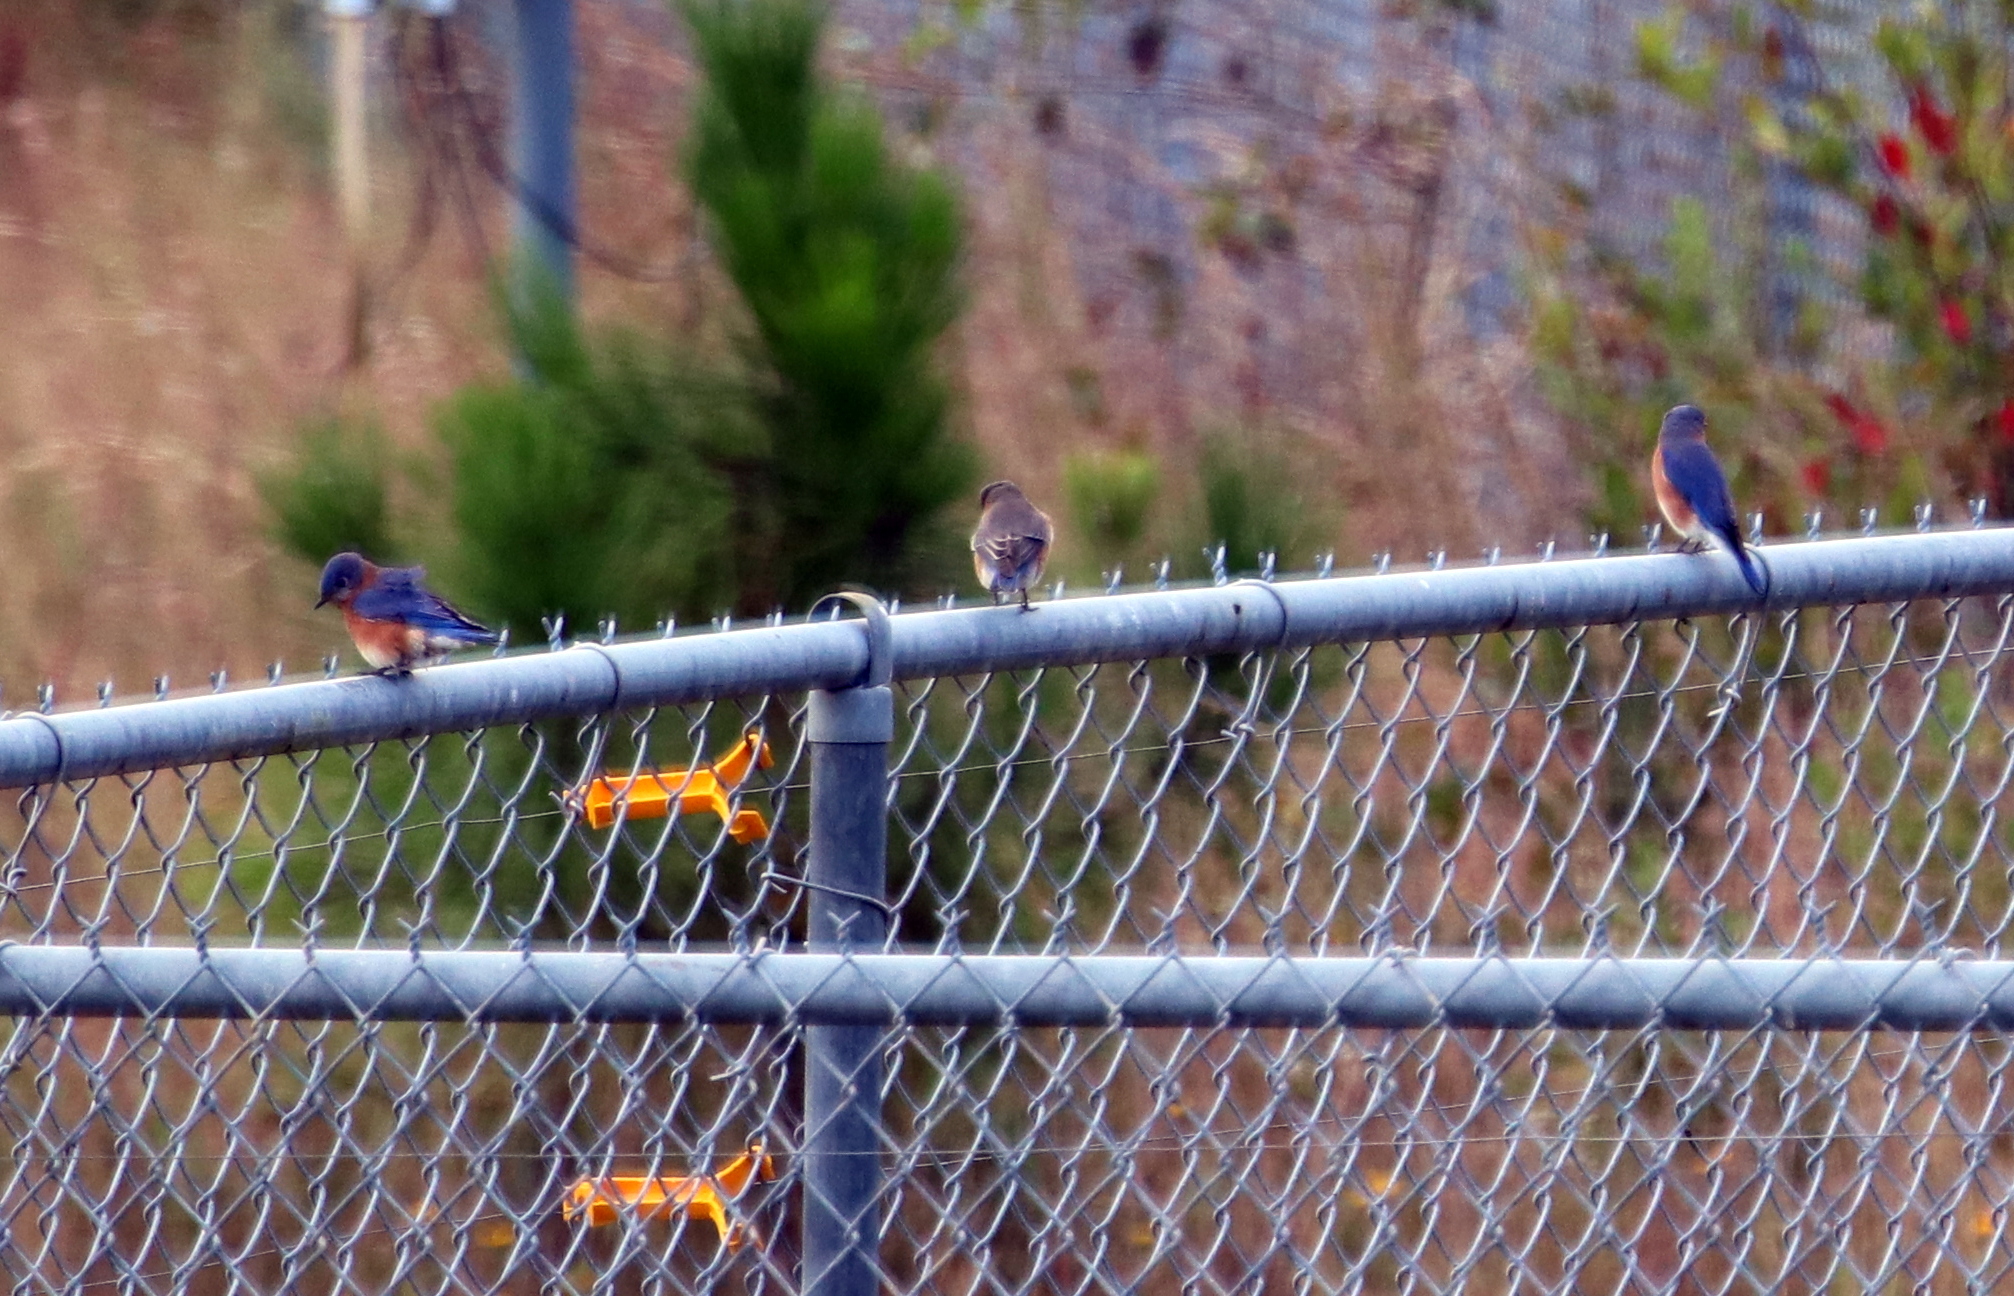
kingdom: Animalia
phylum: Chordata
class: Aves
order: Passeriformes
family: Turdidae
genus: Sialia
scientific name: Sialia sialis
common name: Eastern bluebird
